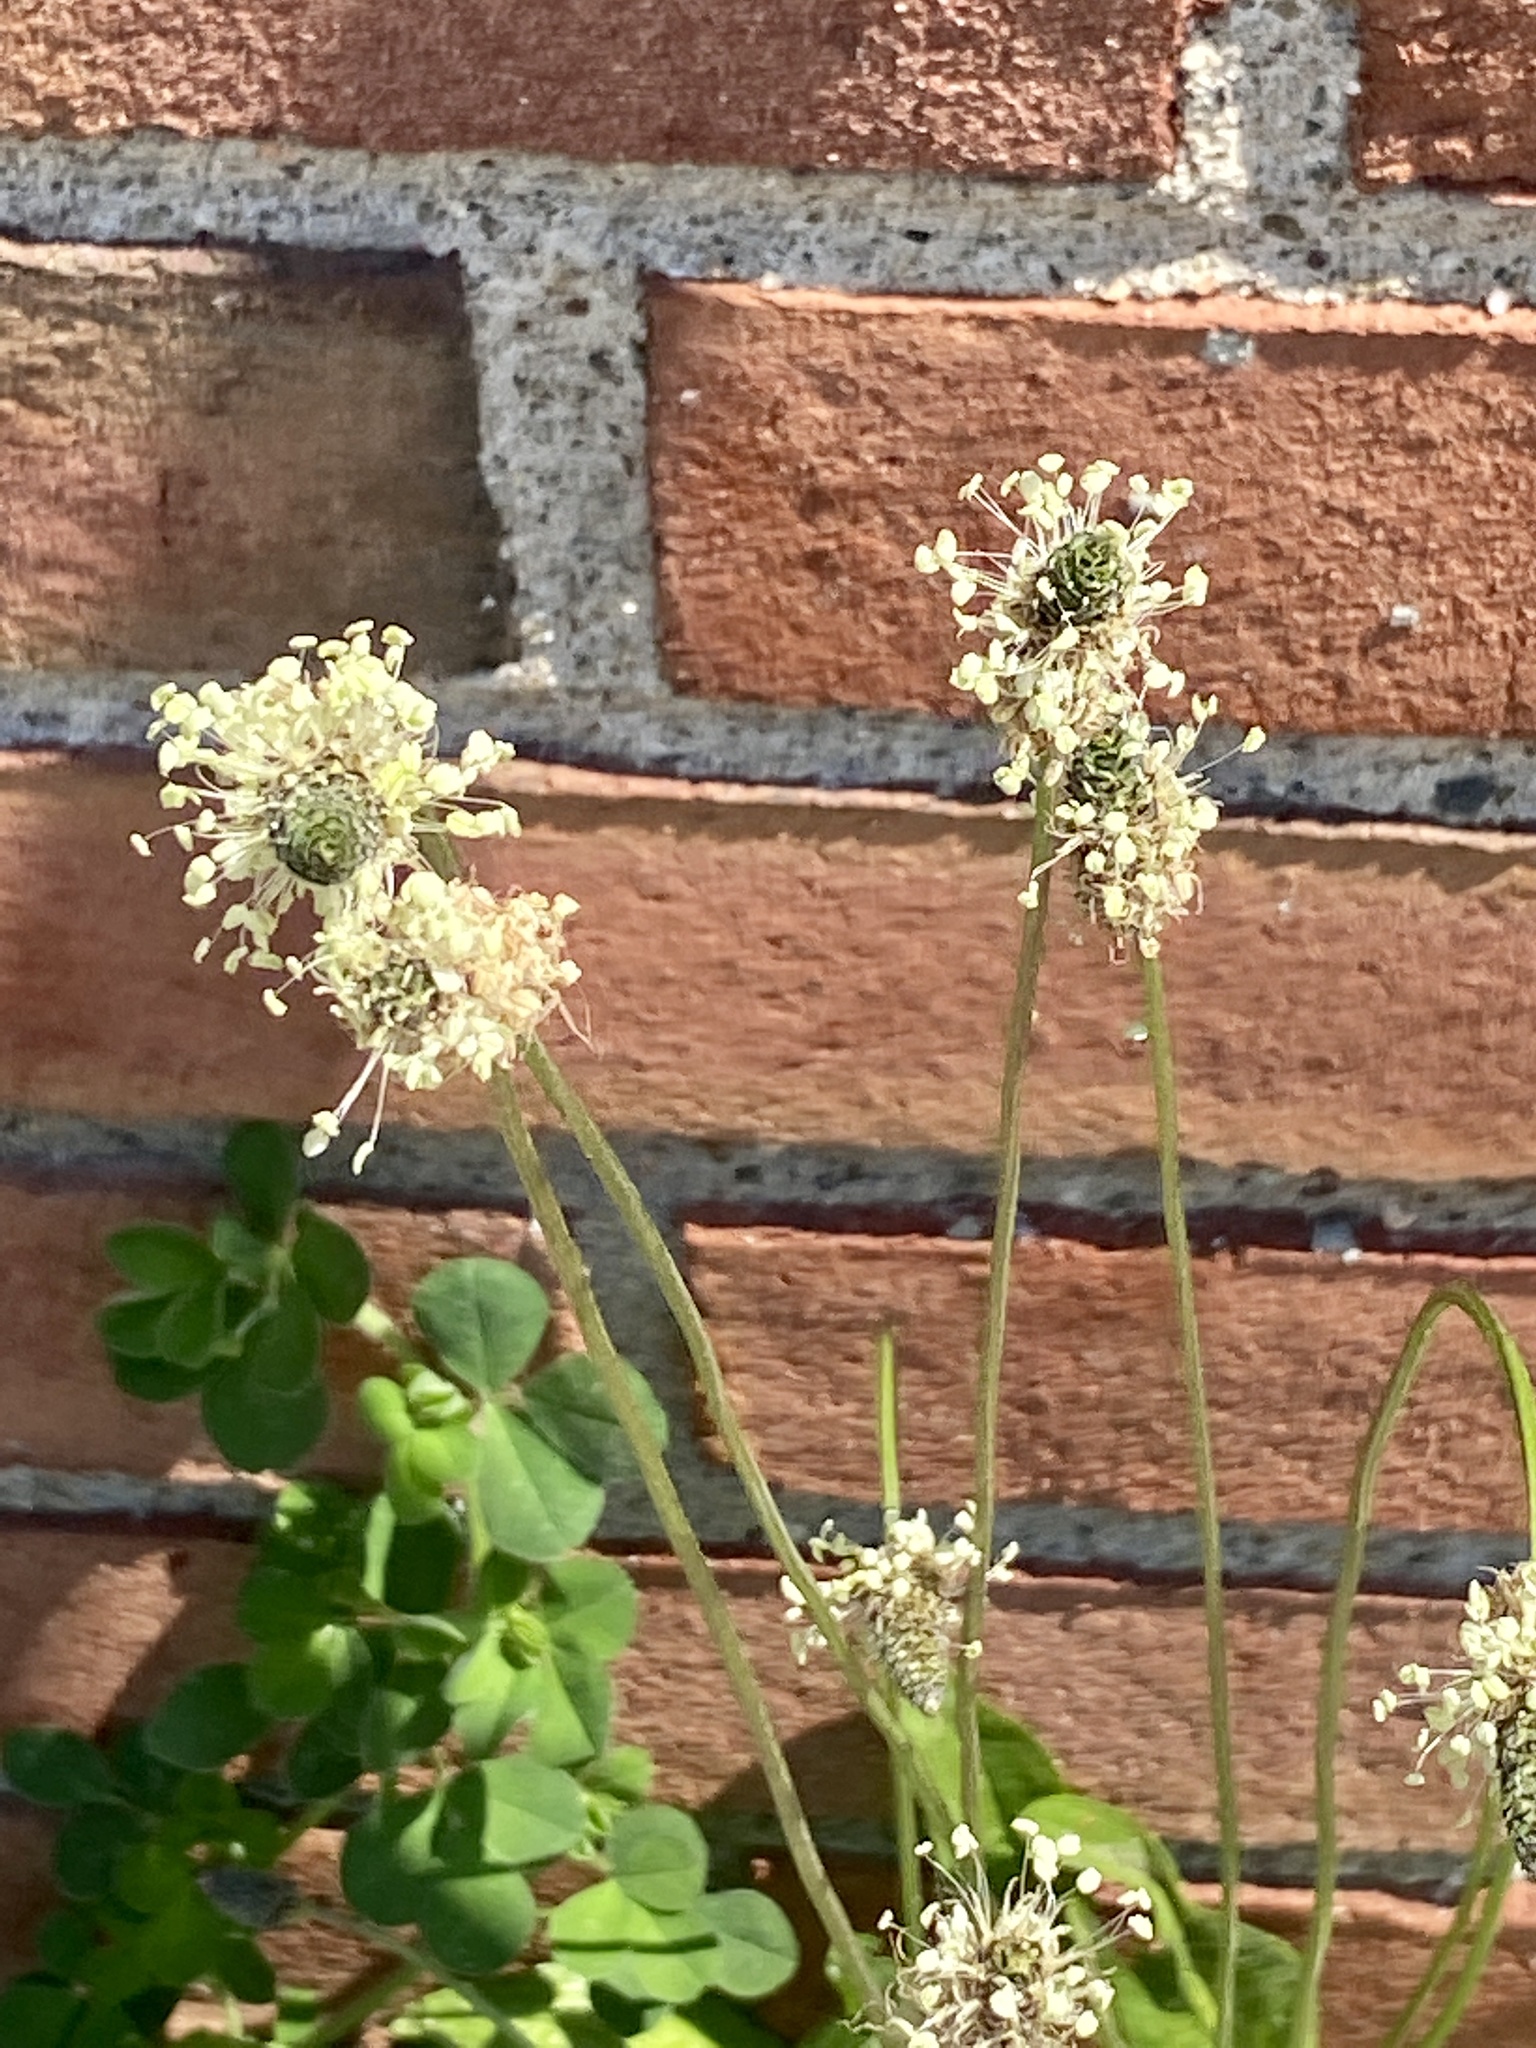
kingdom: Plantae
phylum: Tracheophyta
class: Magnoliopsida
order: Lamiales
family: Plantaginaceae
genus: Plantago
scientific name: Plantago lanceolata
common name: Ribwort plantain
